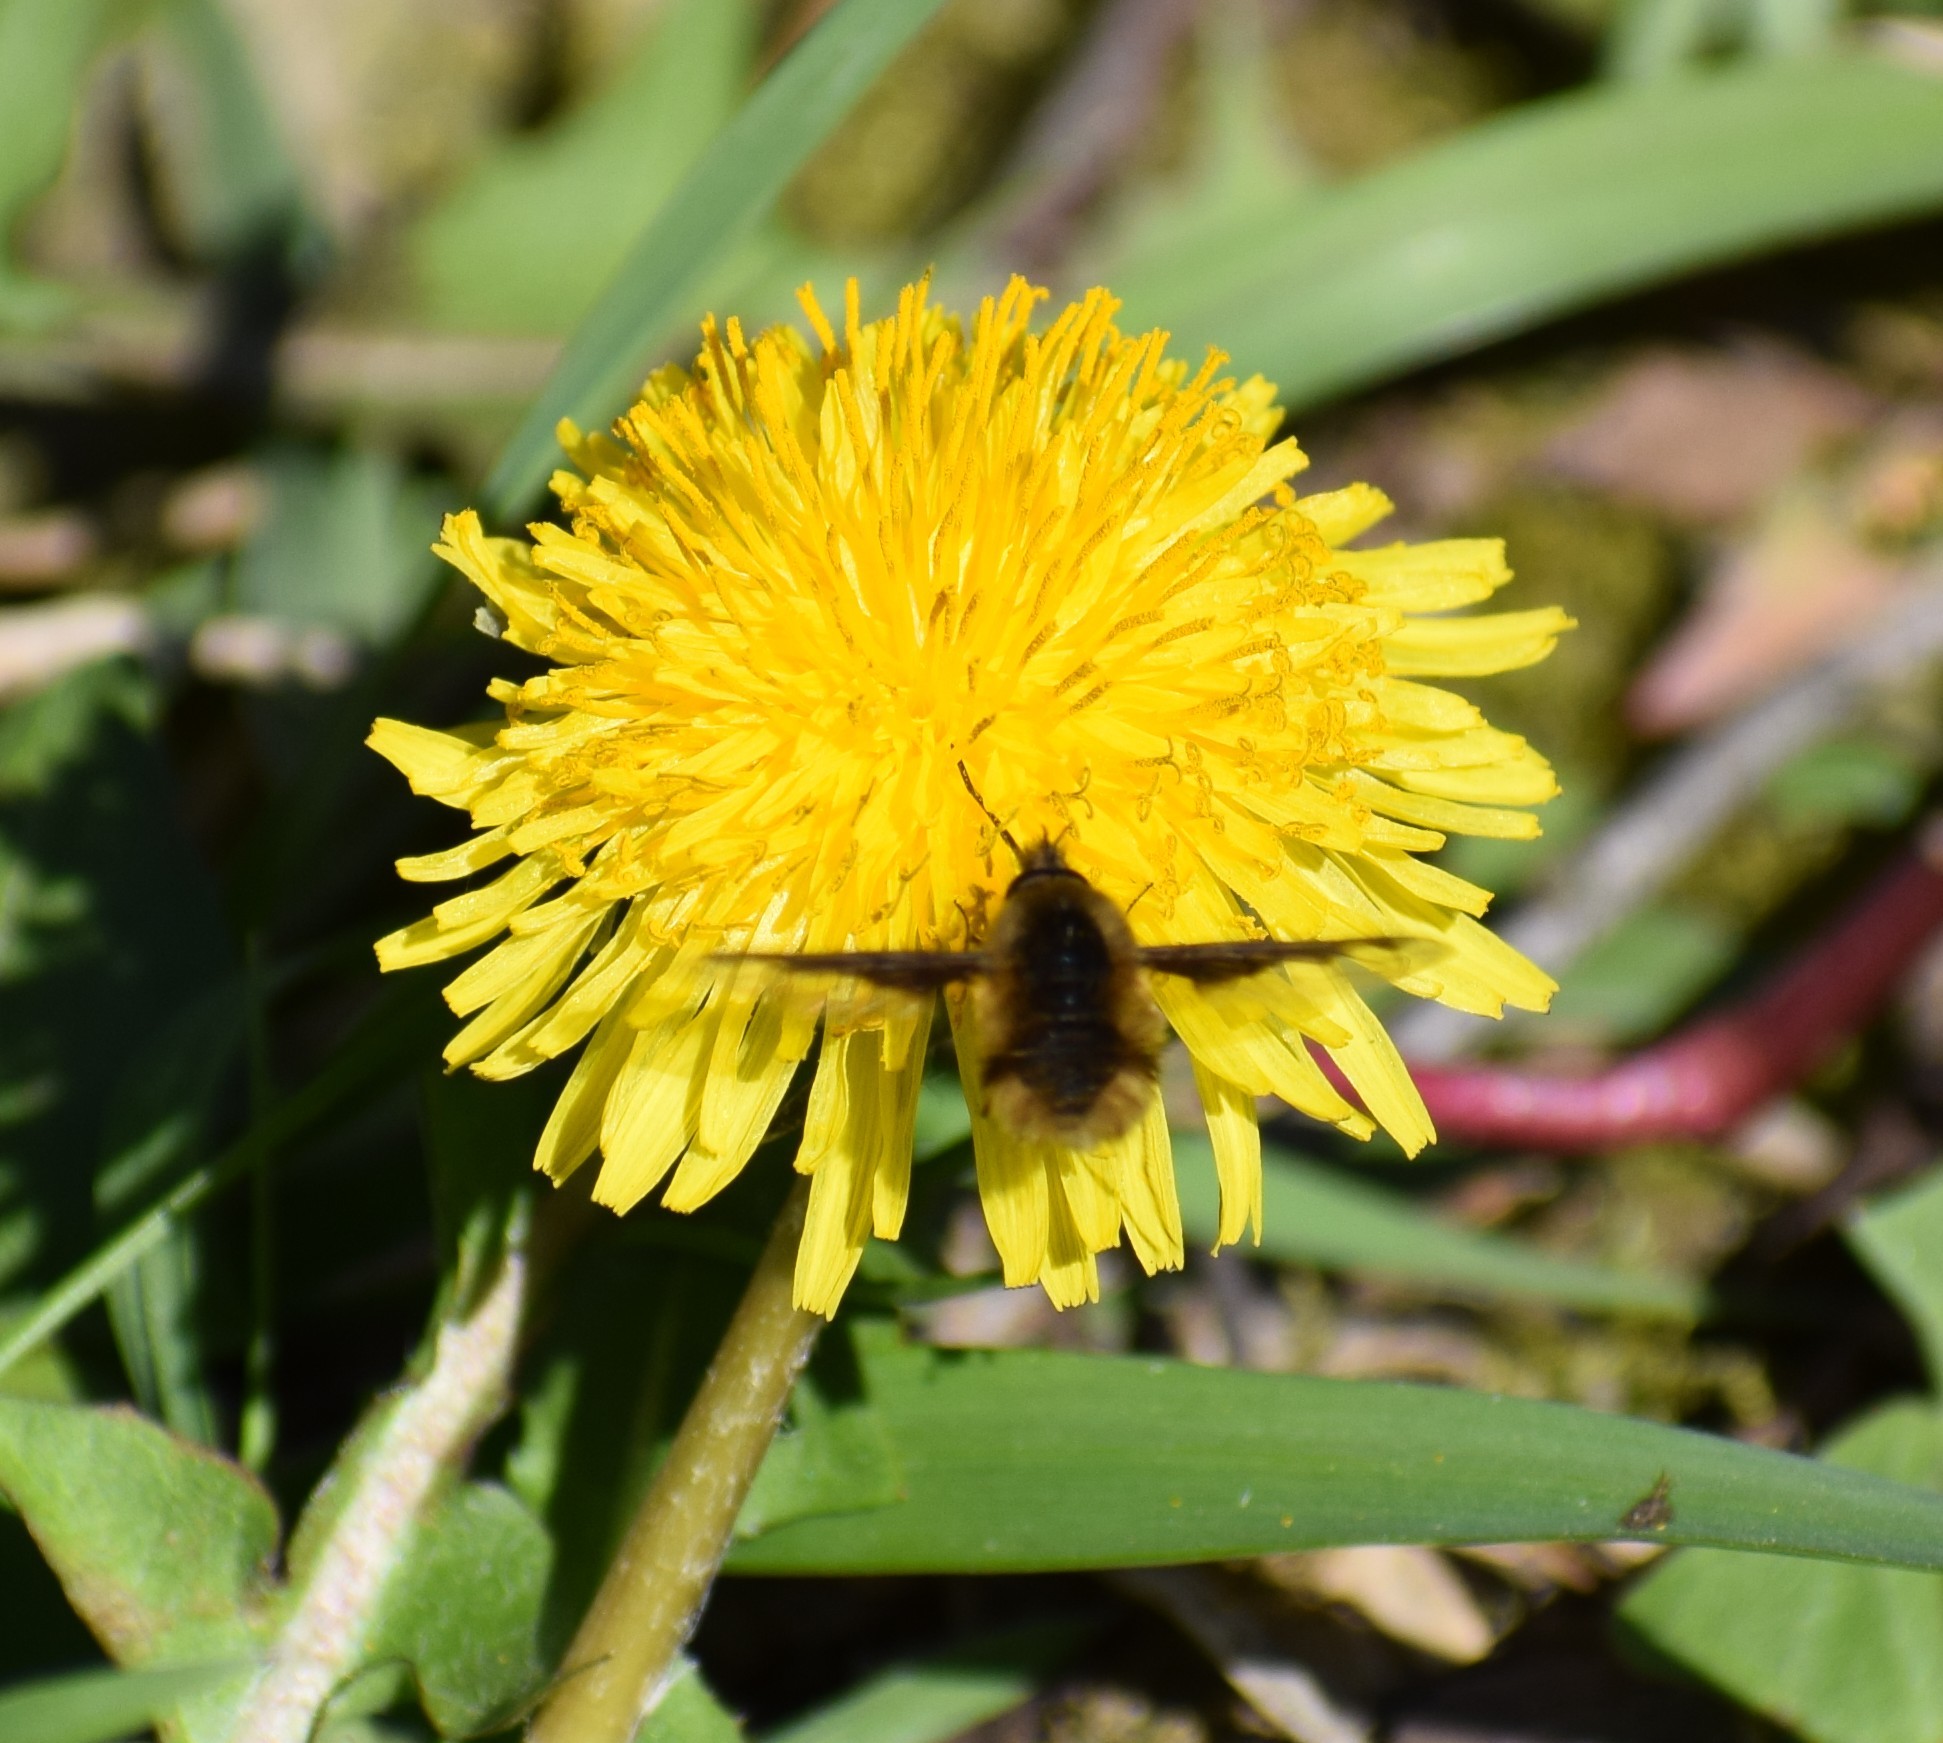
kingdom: Animalia
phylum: Arthropoda
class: Insecta
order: Diptera
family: Bombyliidae
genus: Bombylius
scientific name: Bombylius major
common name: Bee fly
